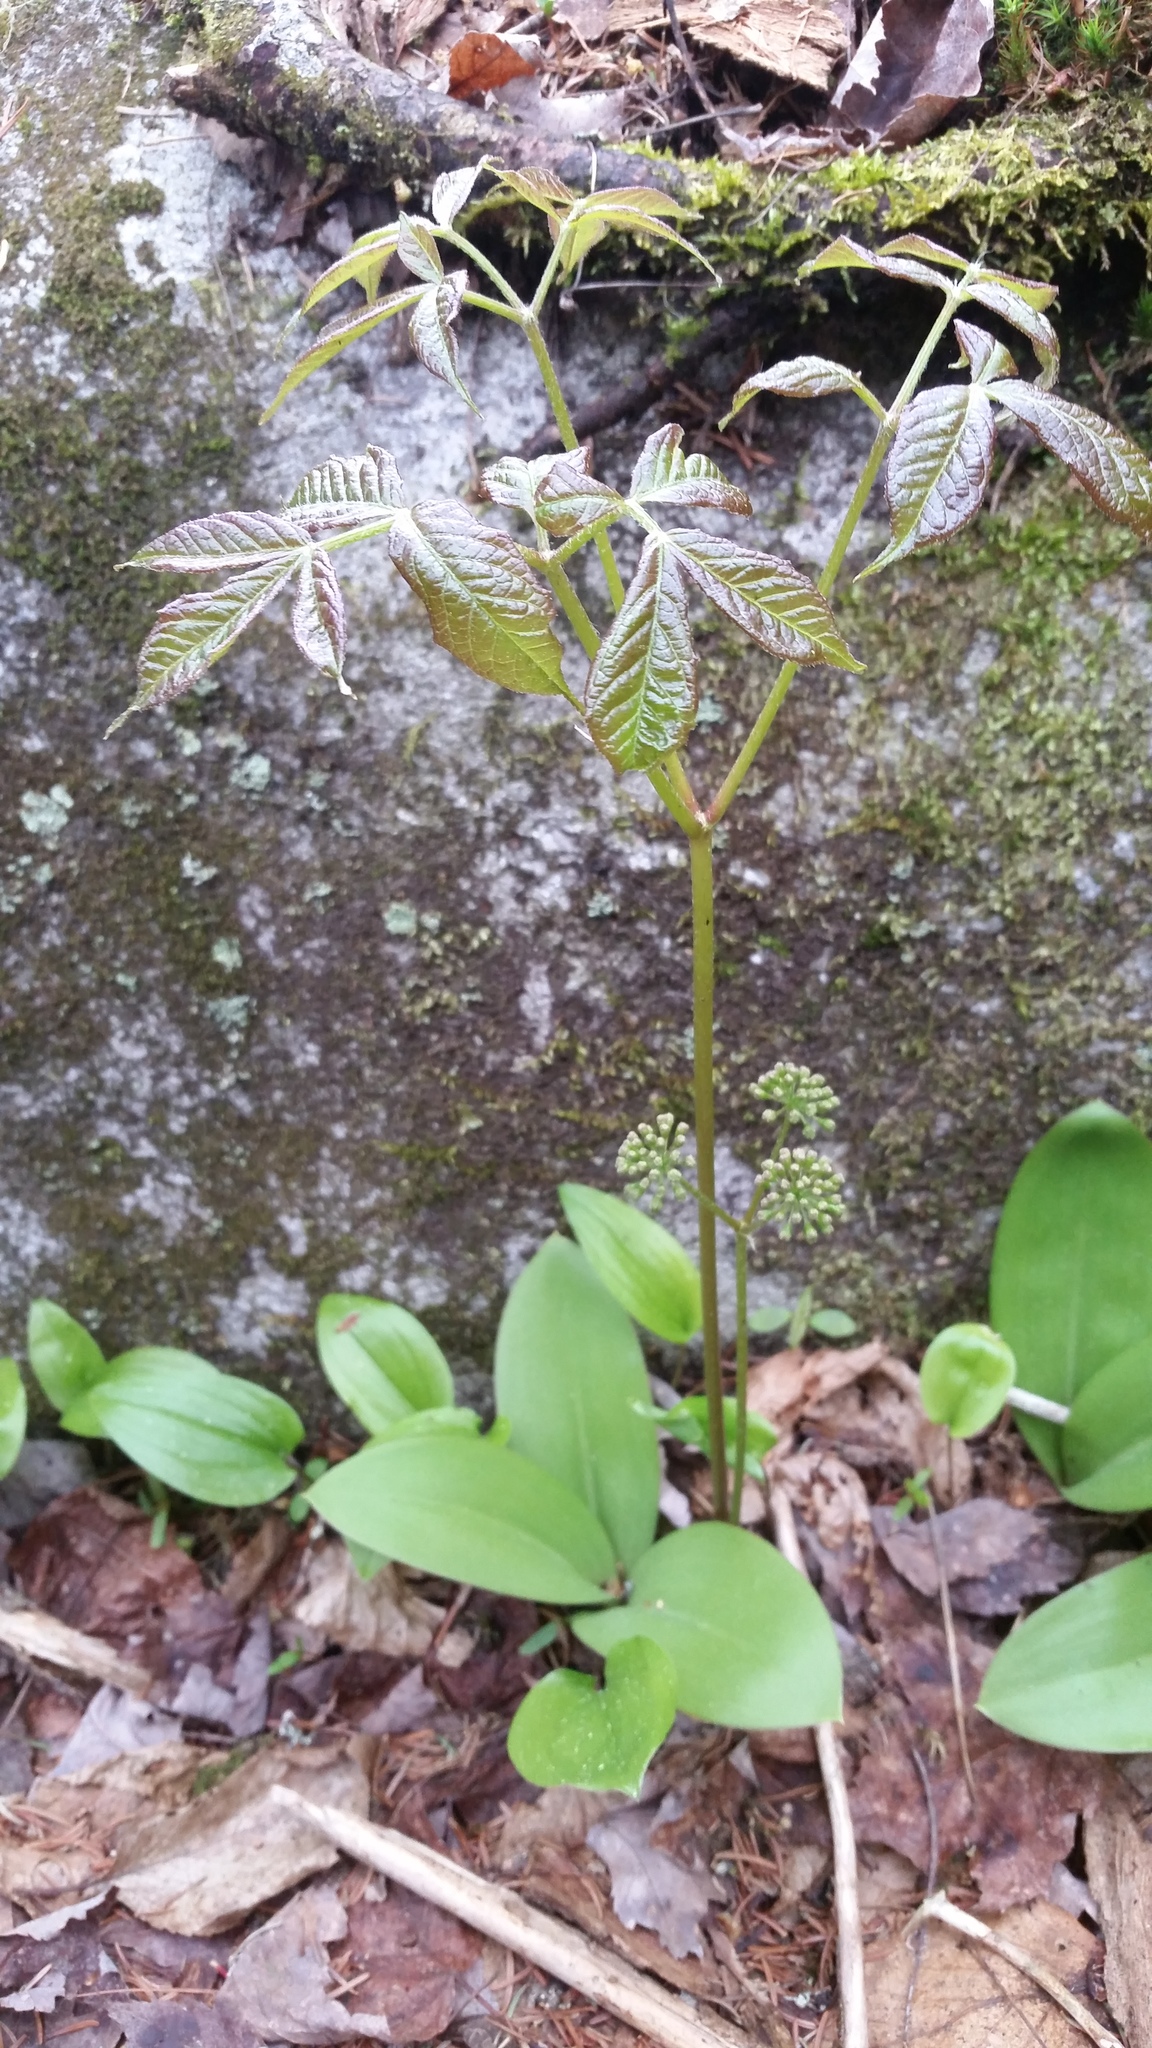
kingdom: Plantae
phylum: Tracheophyta
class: Magnoliopsida
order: Apiales
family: Araliaceae
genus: Aralia
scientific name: Aralia nudicaulis
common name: Wild sarsaparilla
